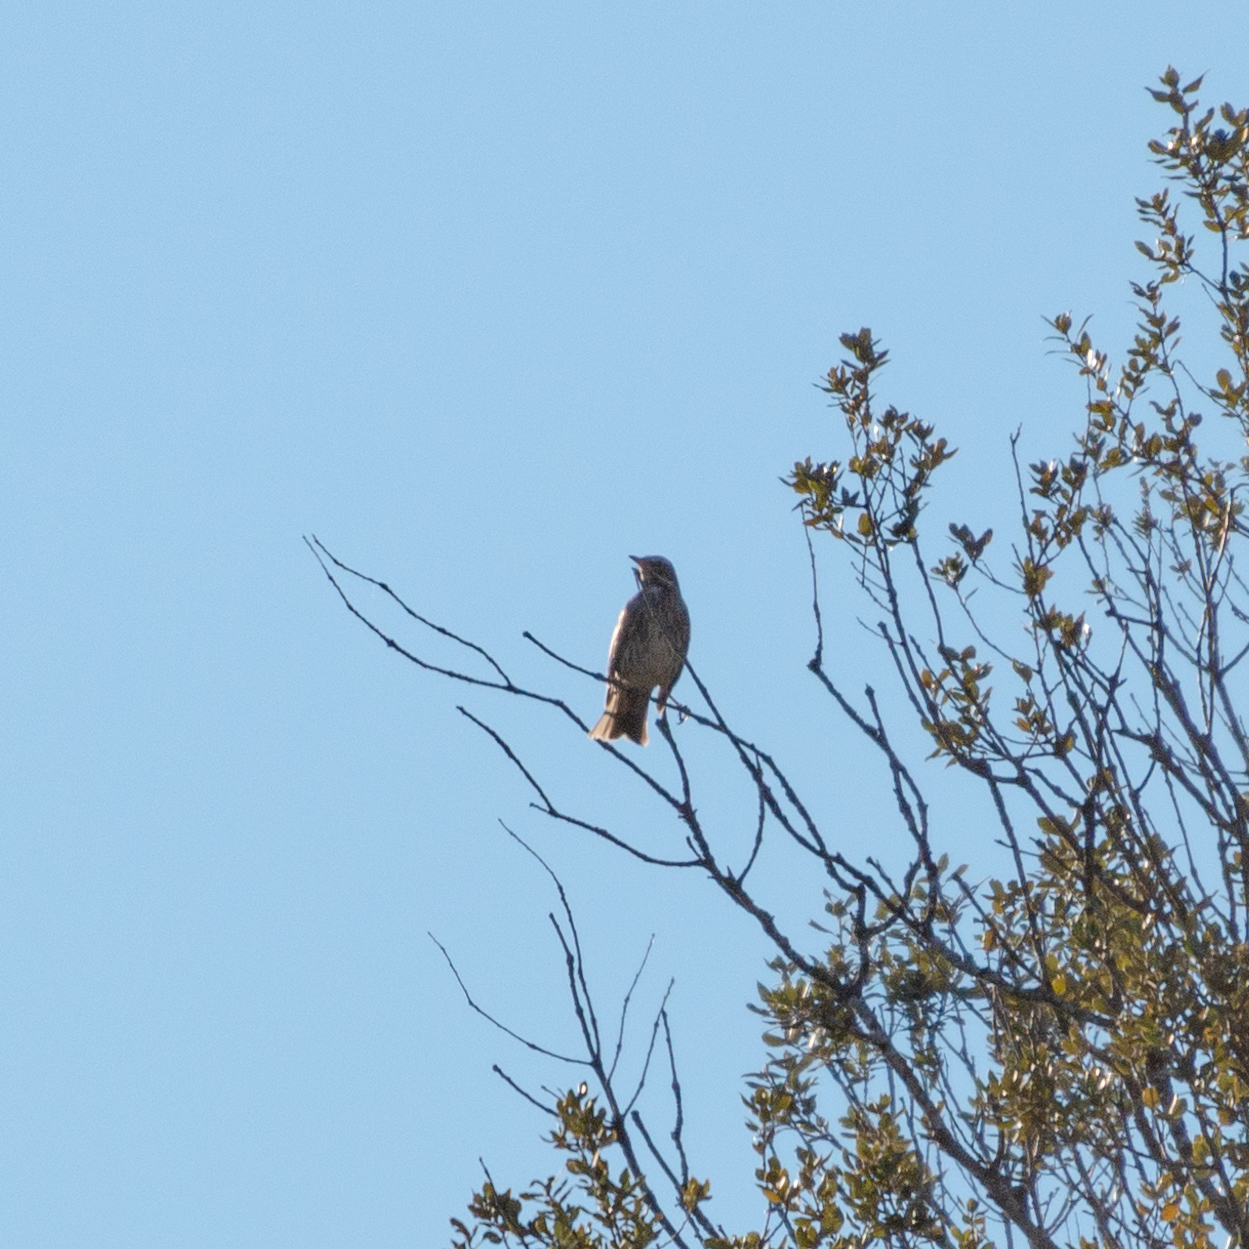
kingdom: Animalia
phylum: Chordata
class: Aves
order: Passeriformes
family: Turdidae
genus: Turdus
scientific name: Turdus iliacus
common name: Redwing
